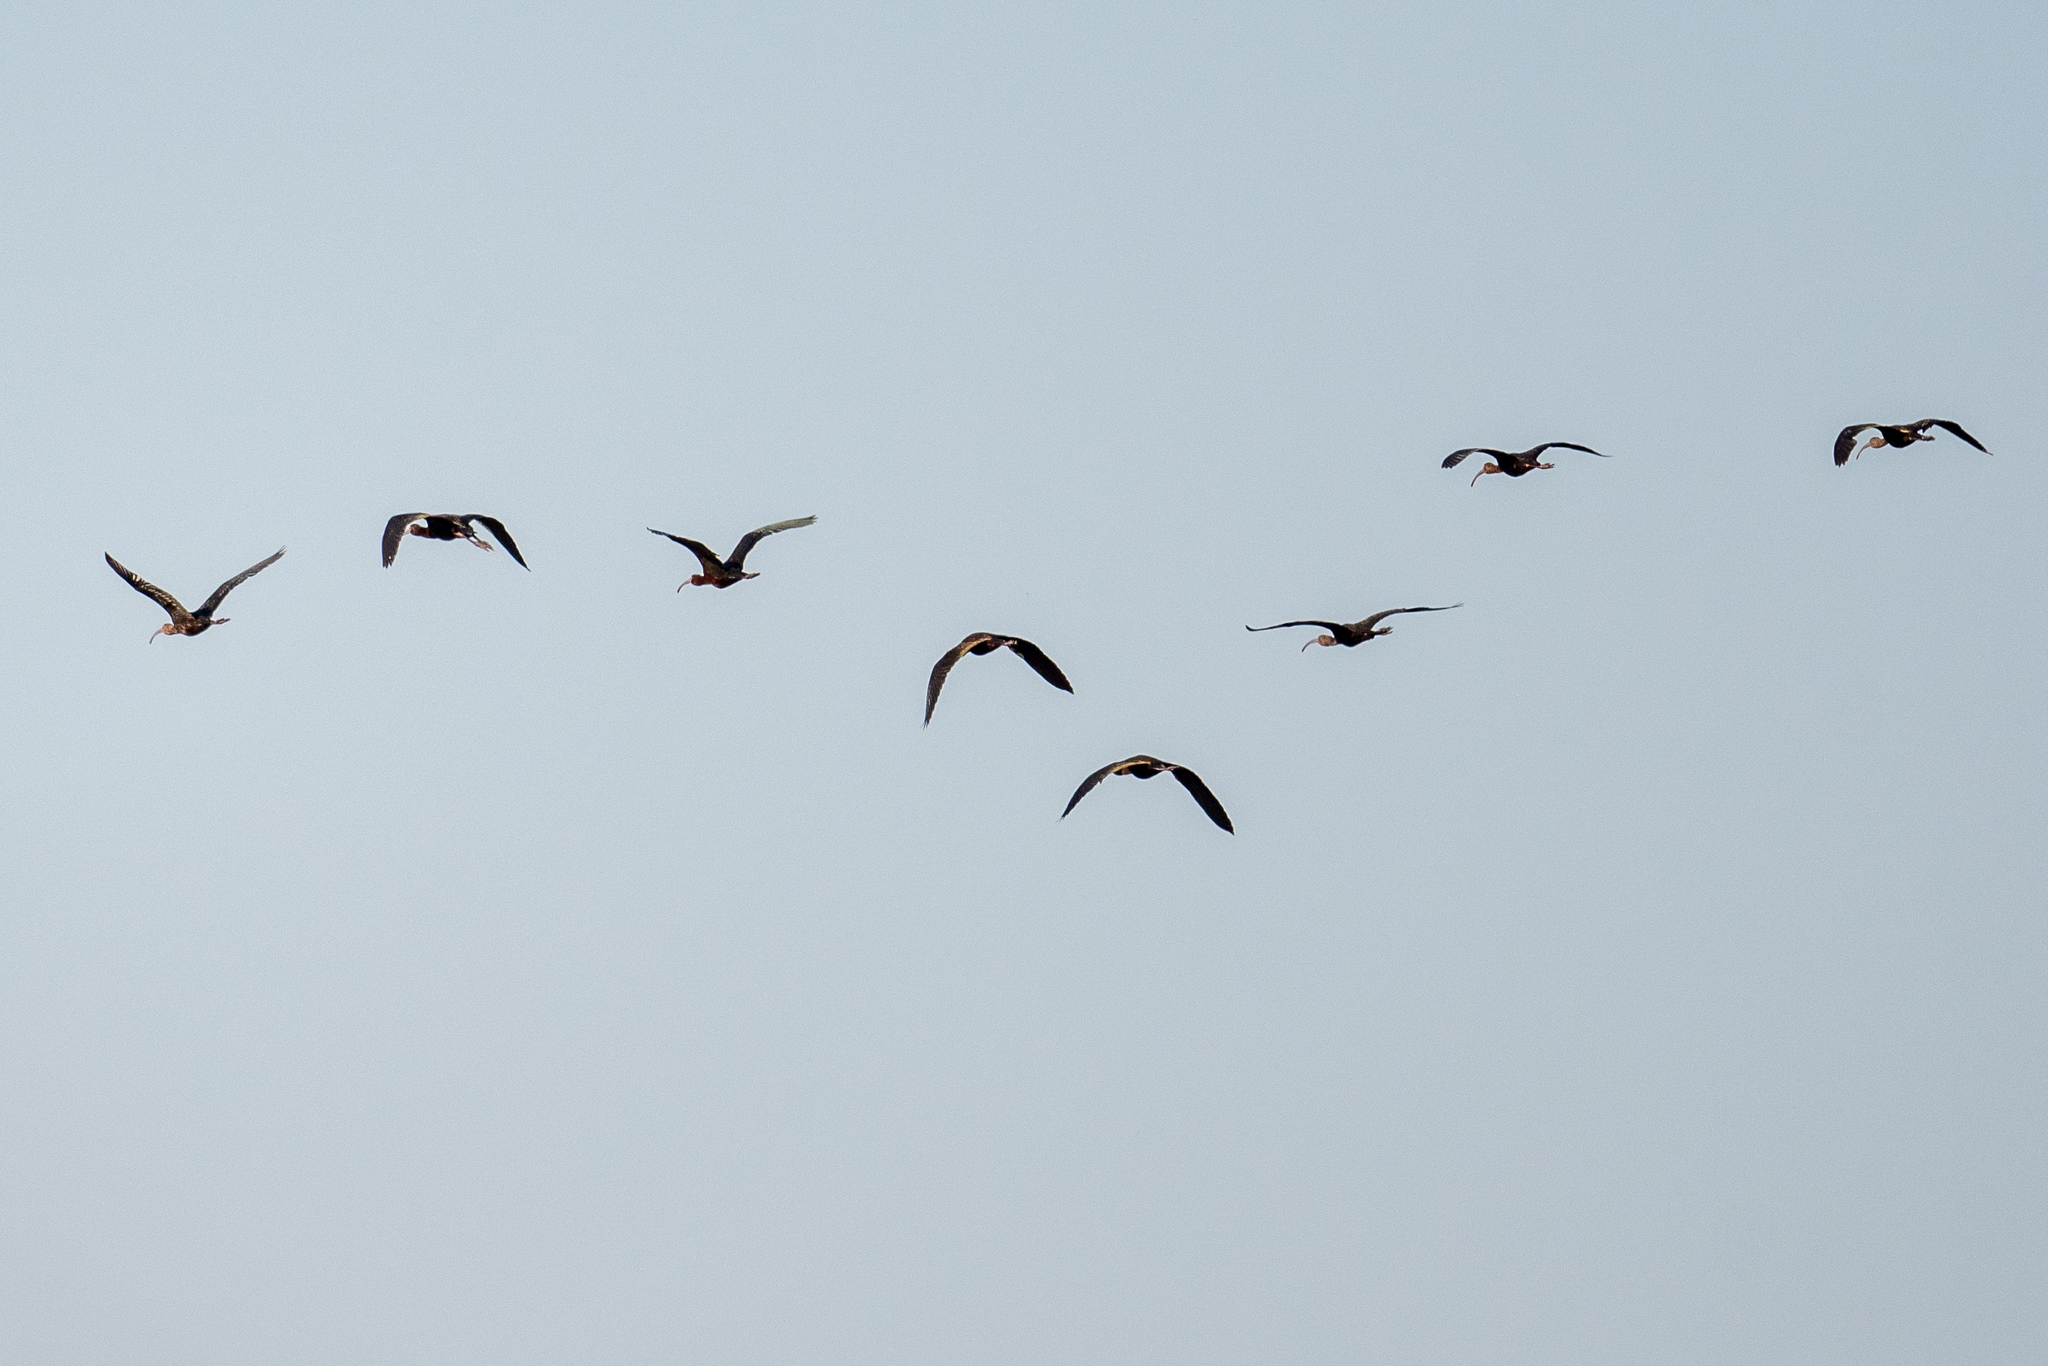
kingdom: Animalia
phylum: Chordata
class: Aves
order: Pelecaniformes
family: Threskiornithidae
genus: Plegadis
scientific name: Plegadis chihi
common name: White-faced ibis
